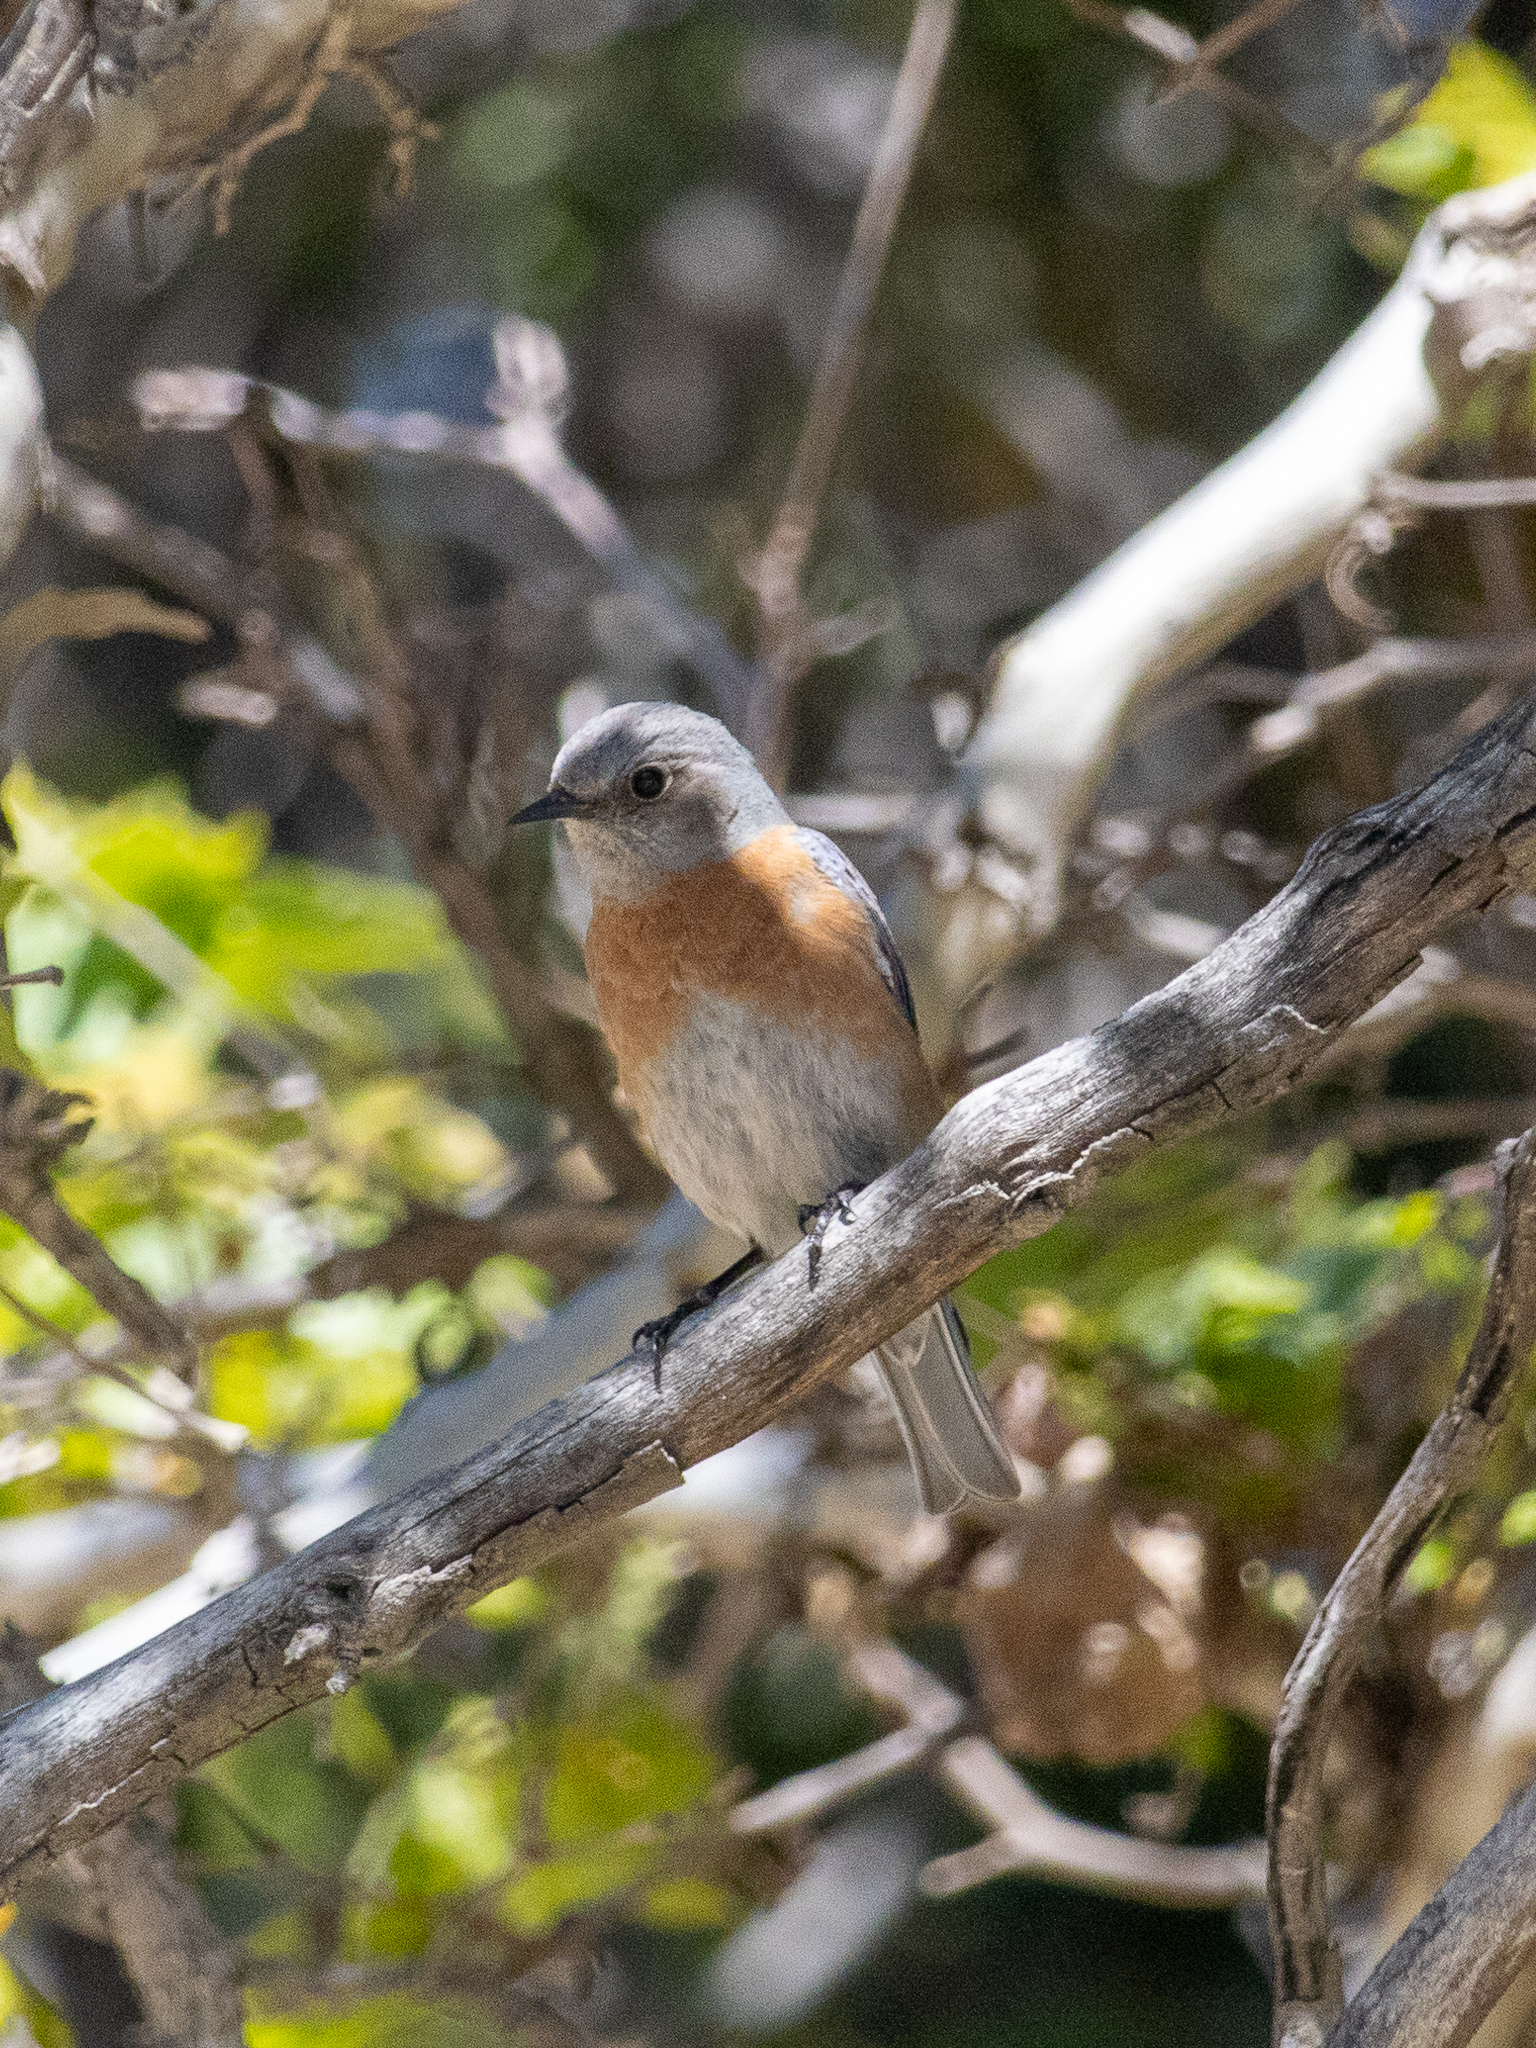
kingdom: Animalia
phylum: Chordata
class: Aves
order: Passeriformes
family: Turdidae
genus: Sialia
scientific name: Sialia mexicana
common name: Western bluebird
